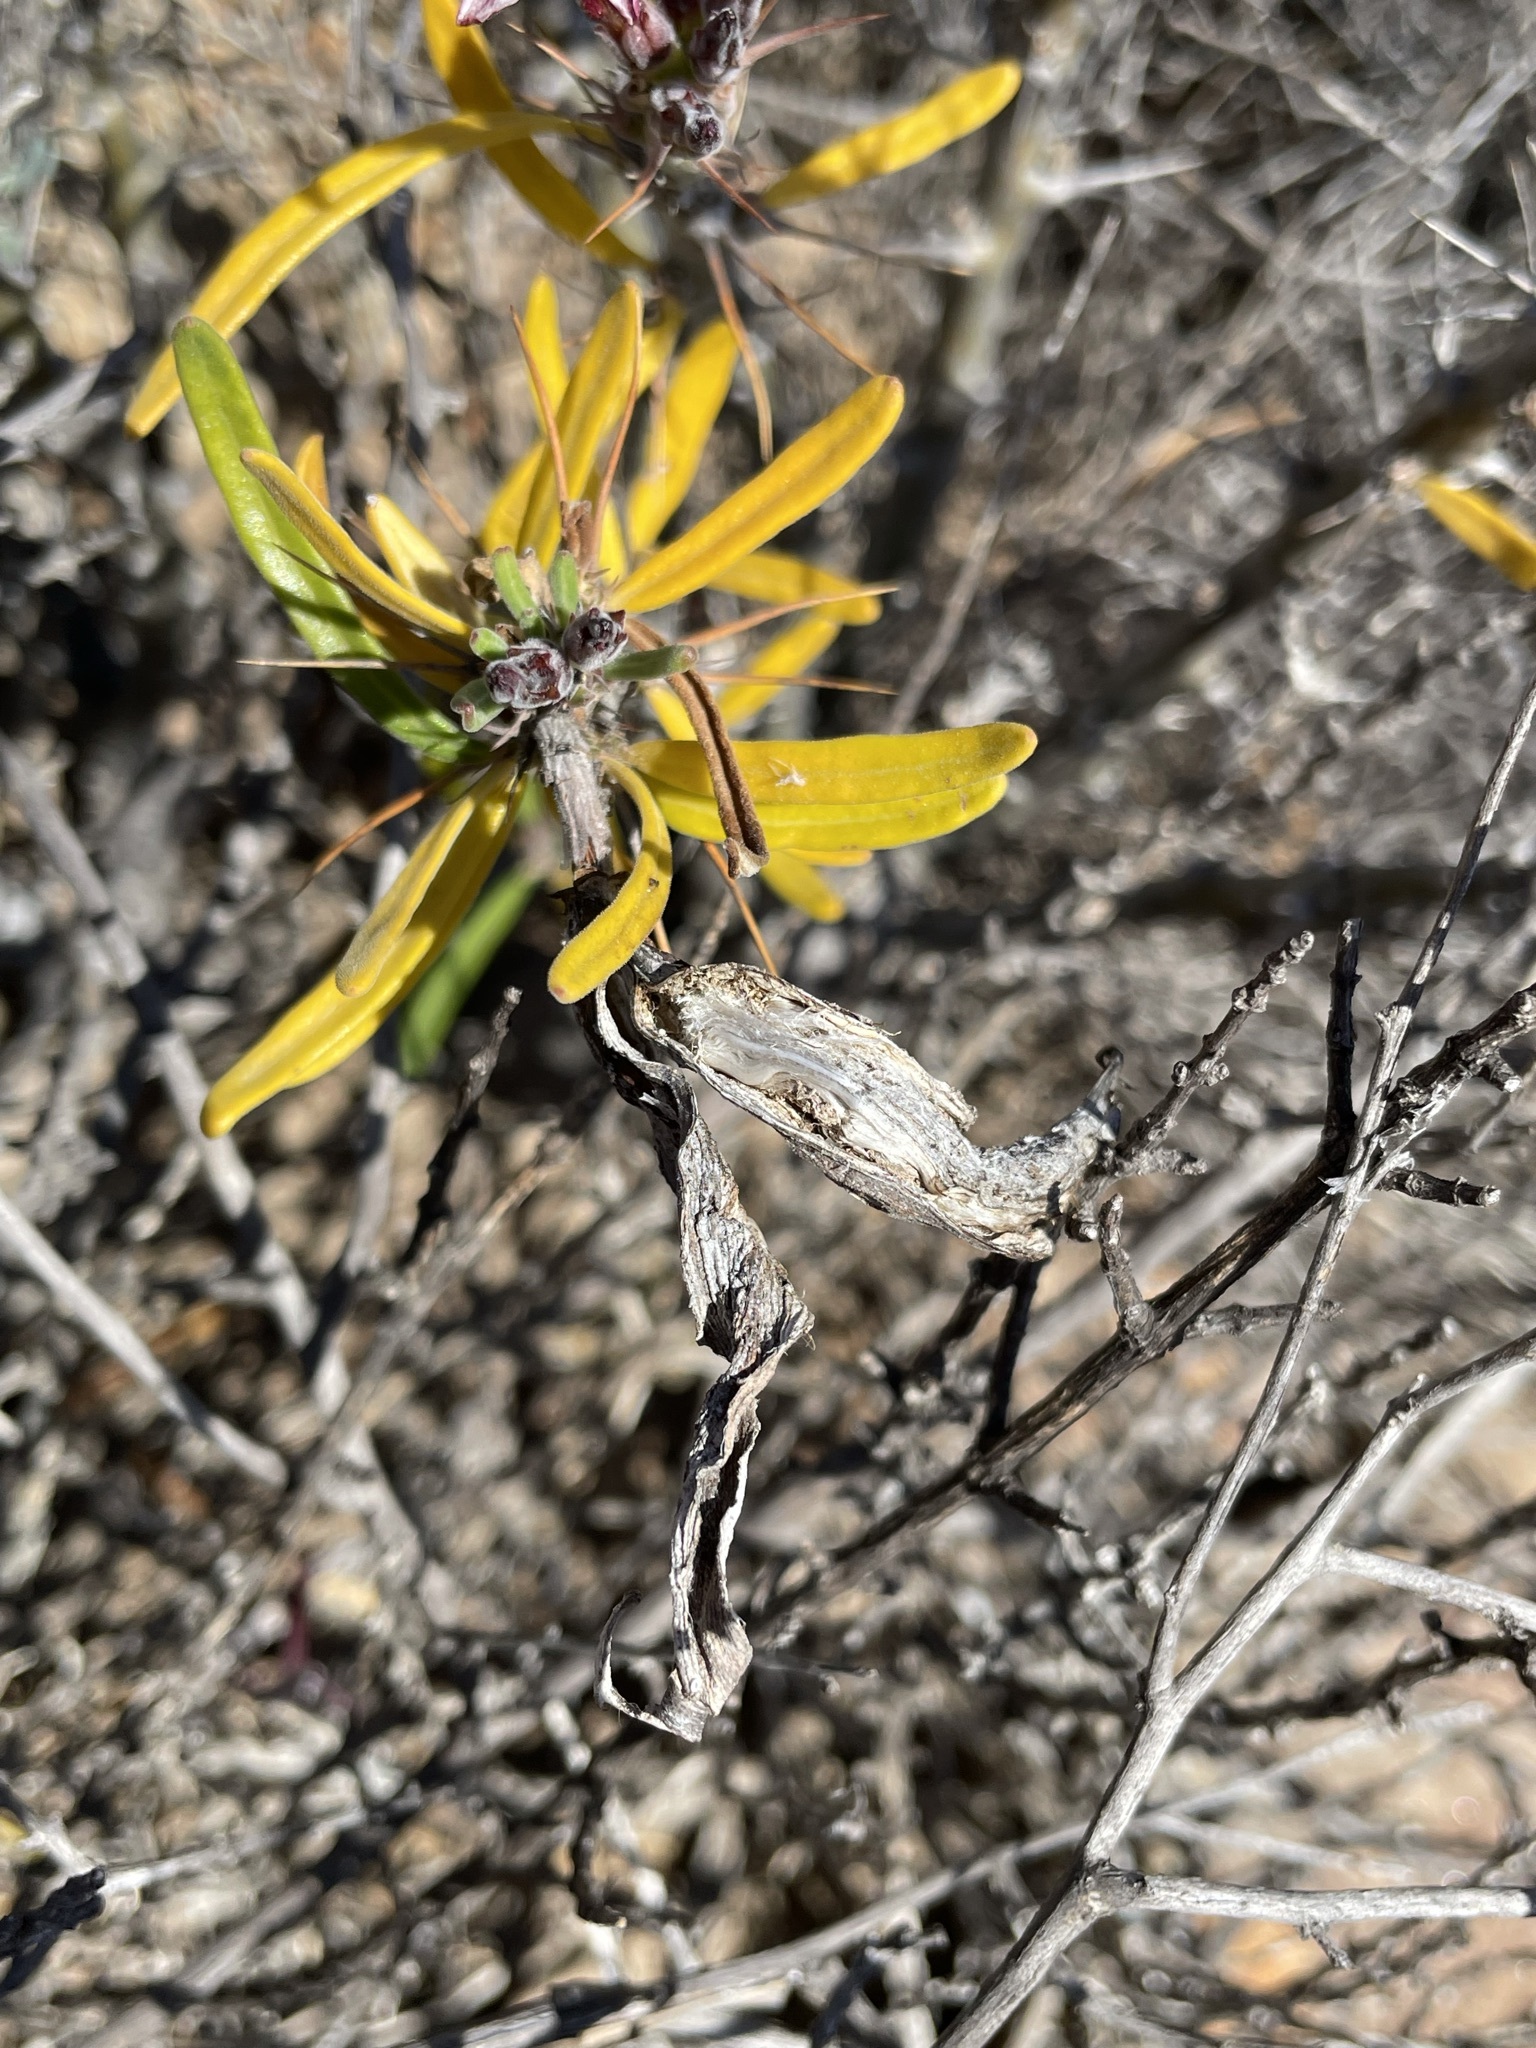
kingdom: Plantae
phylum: Tracheophyta
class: Magnoliopsida
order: Gentianales
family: Apocynaceae
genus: Pachypodium
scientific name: Pachypodium succulentum
